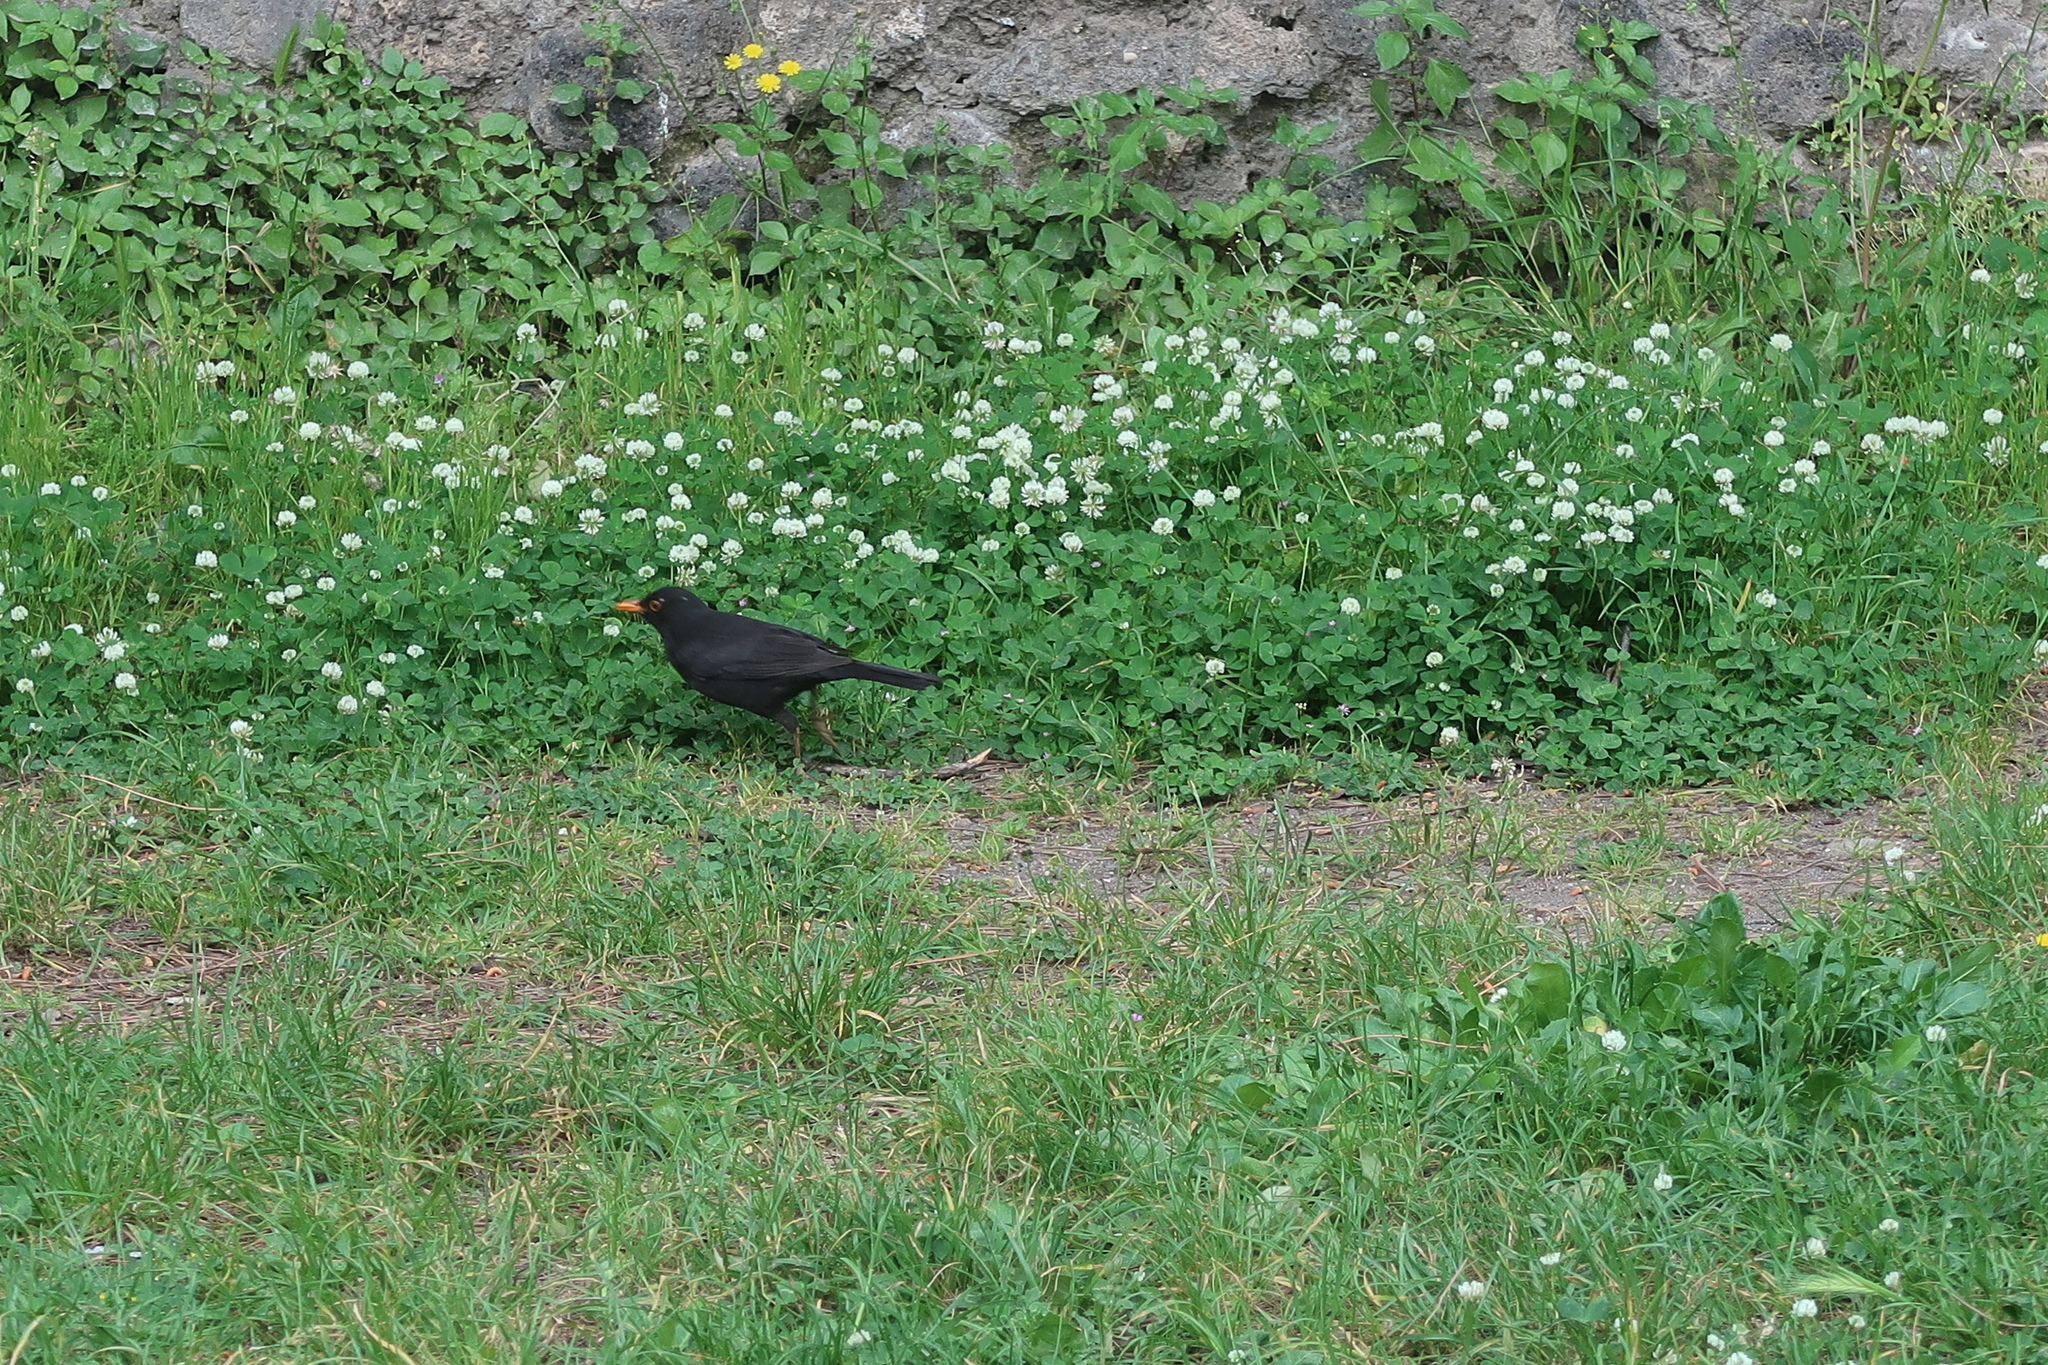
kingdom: Animalia
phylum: Chordata
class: Aves
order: Passeriformes
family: Turdidae
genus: Turdus
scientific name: Turdus merula
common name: Common blackbird
